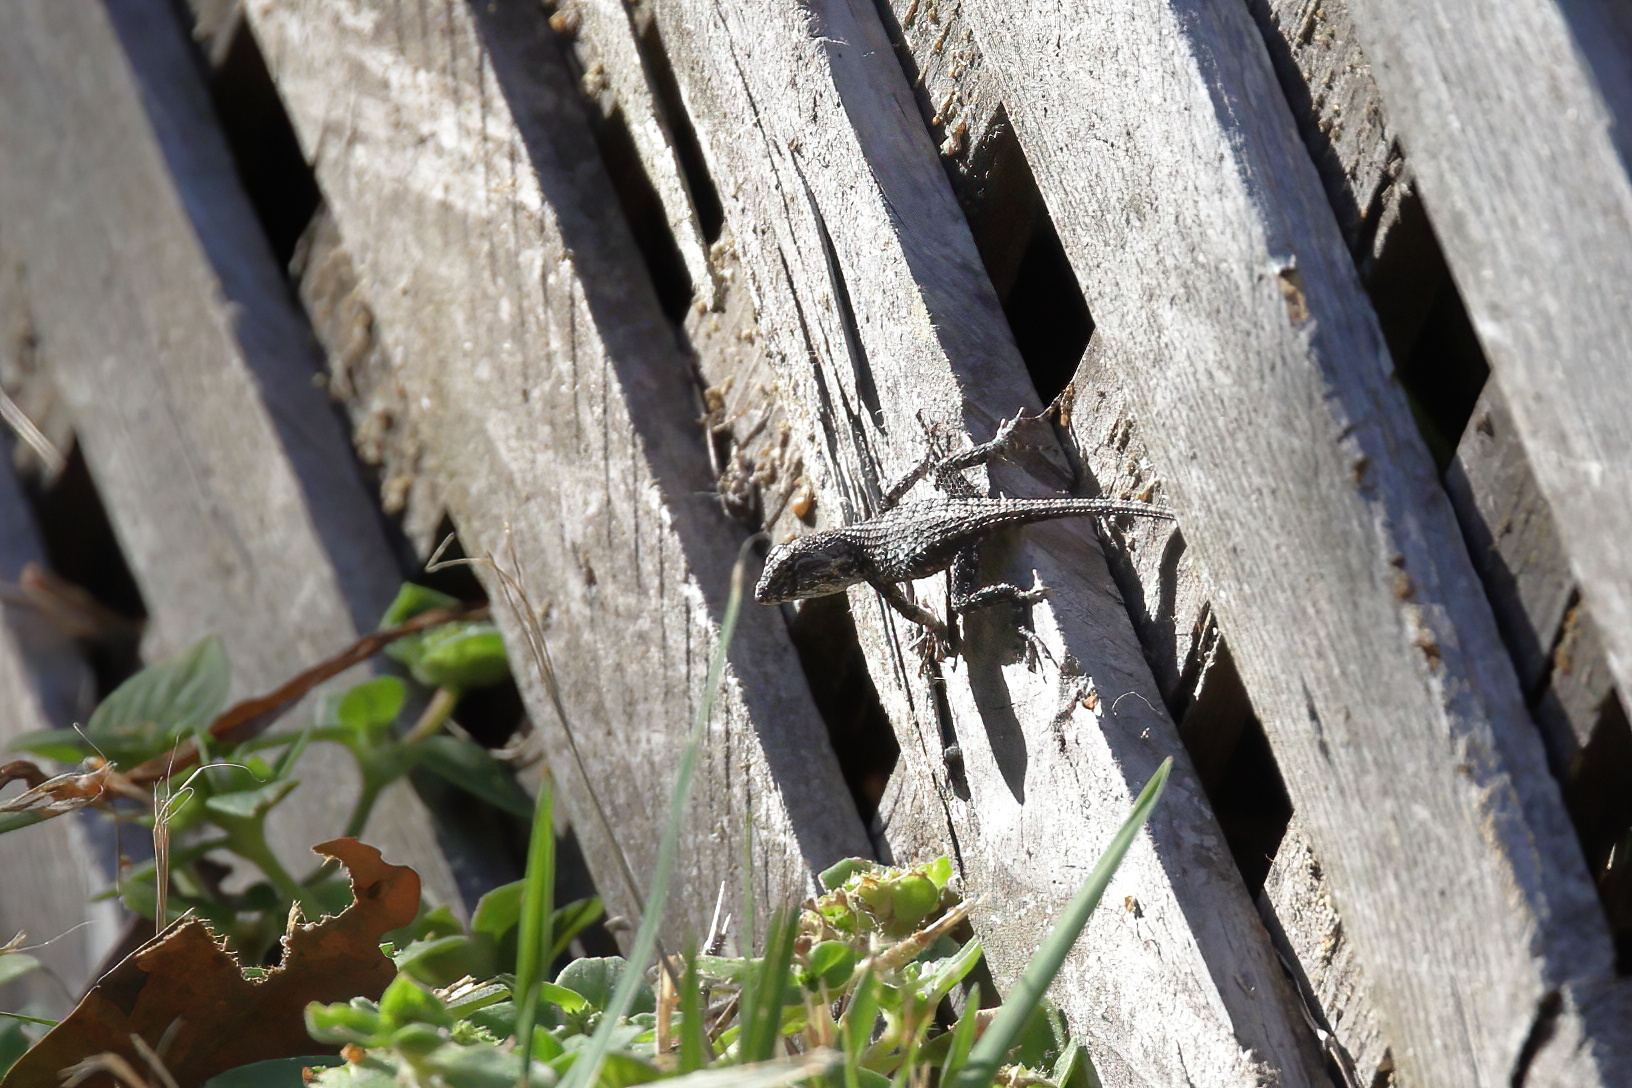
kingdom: Animalia
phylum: Chordata
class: Squamata
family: Phrynosomatidae
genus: Sceloporus
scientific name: Sceloporus undulatus
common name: Eastern fence lizard
